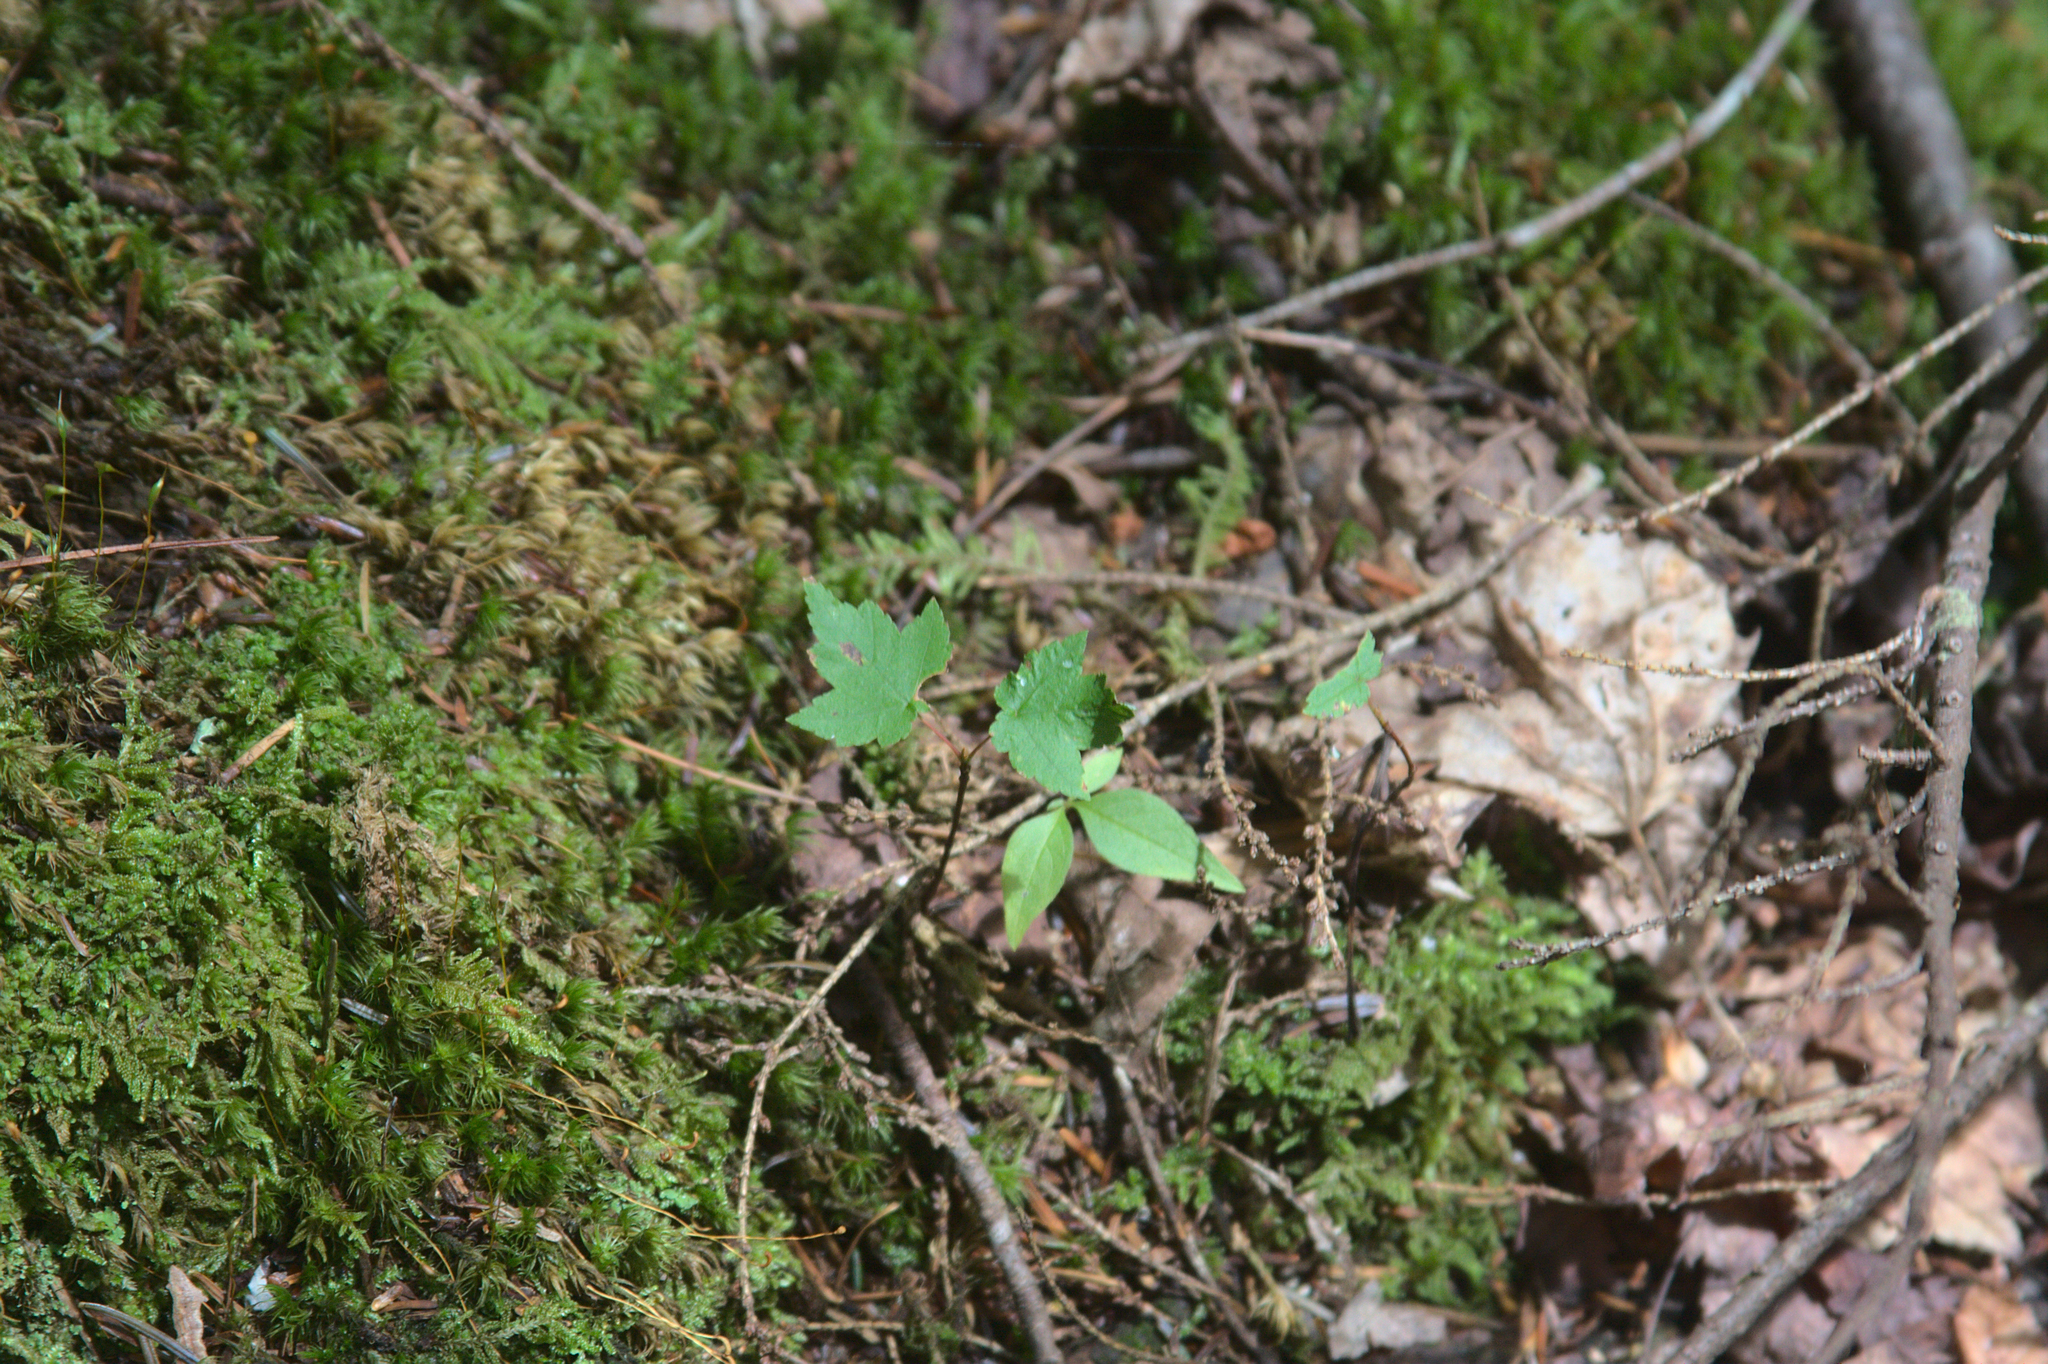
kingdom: Plantae
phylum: Tracheophyta
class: Magnoliopsida
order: Sapindales
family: Sapindaceae
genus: Acer
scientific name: Acer rubrum
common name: Red maple
